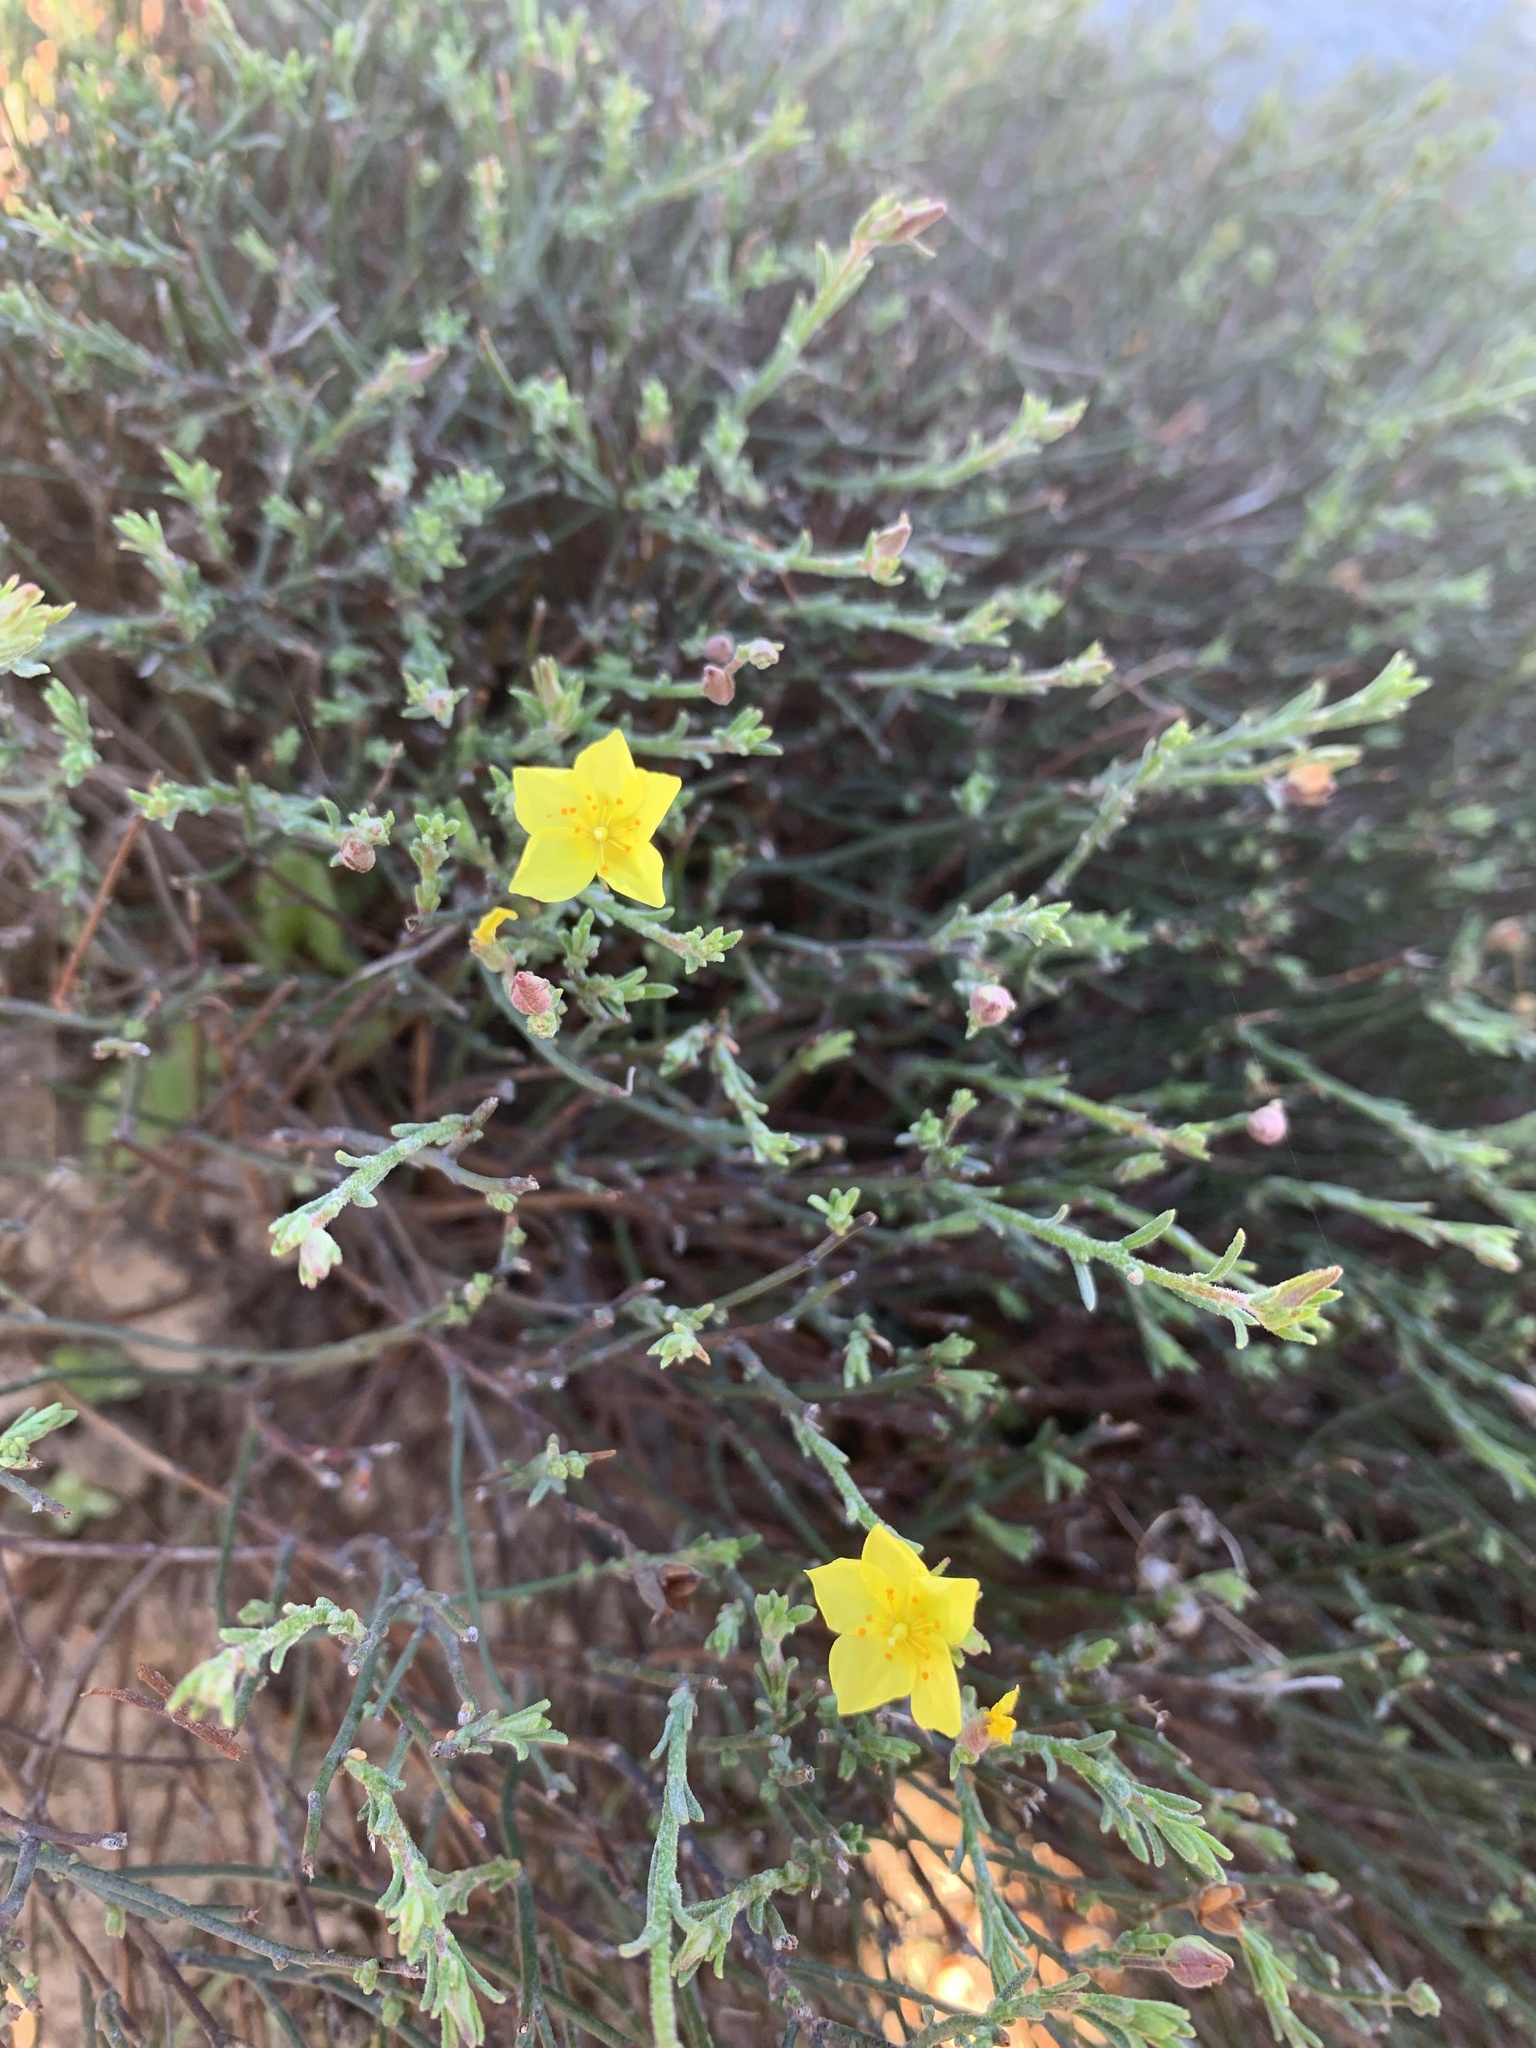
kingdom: Plantae
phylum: Tracheophyta
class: Magnoliopsida
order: Malvales
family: Cistaceae
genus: Crocanthemum
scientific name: Crocanthemum scoparium
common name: Broom-rose
